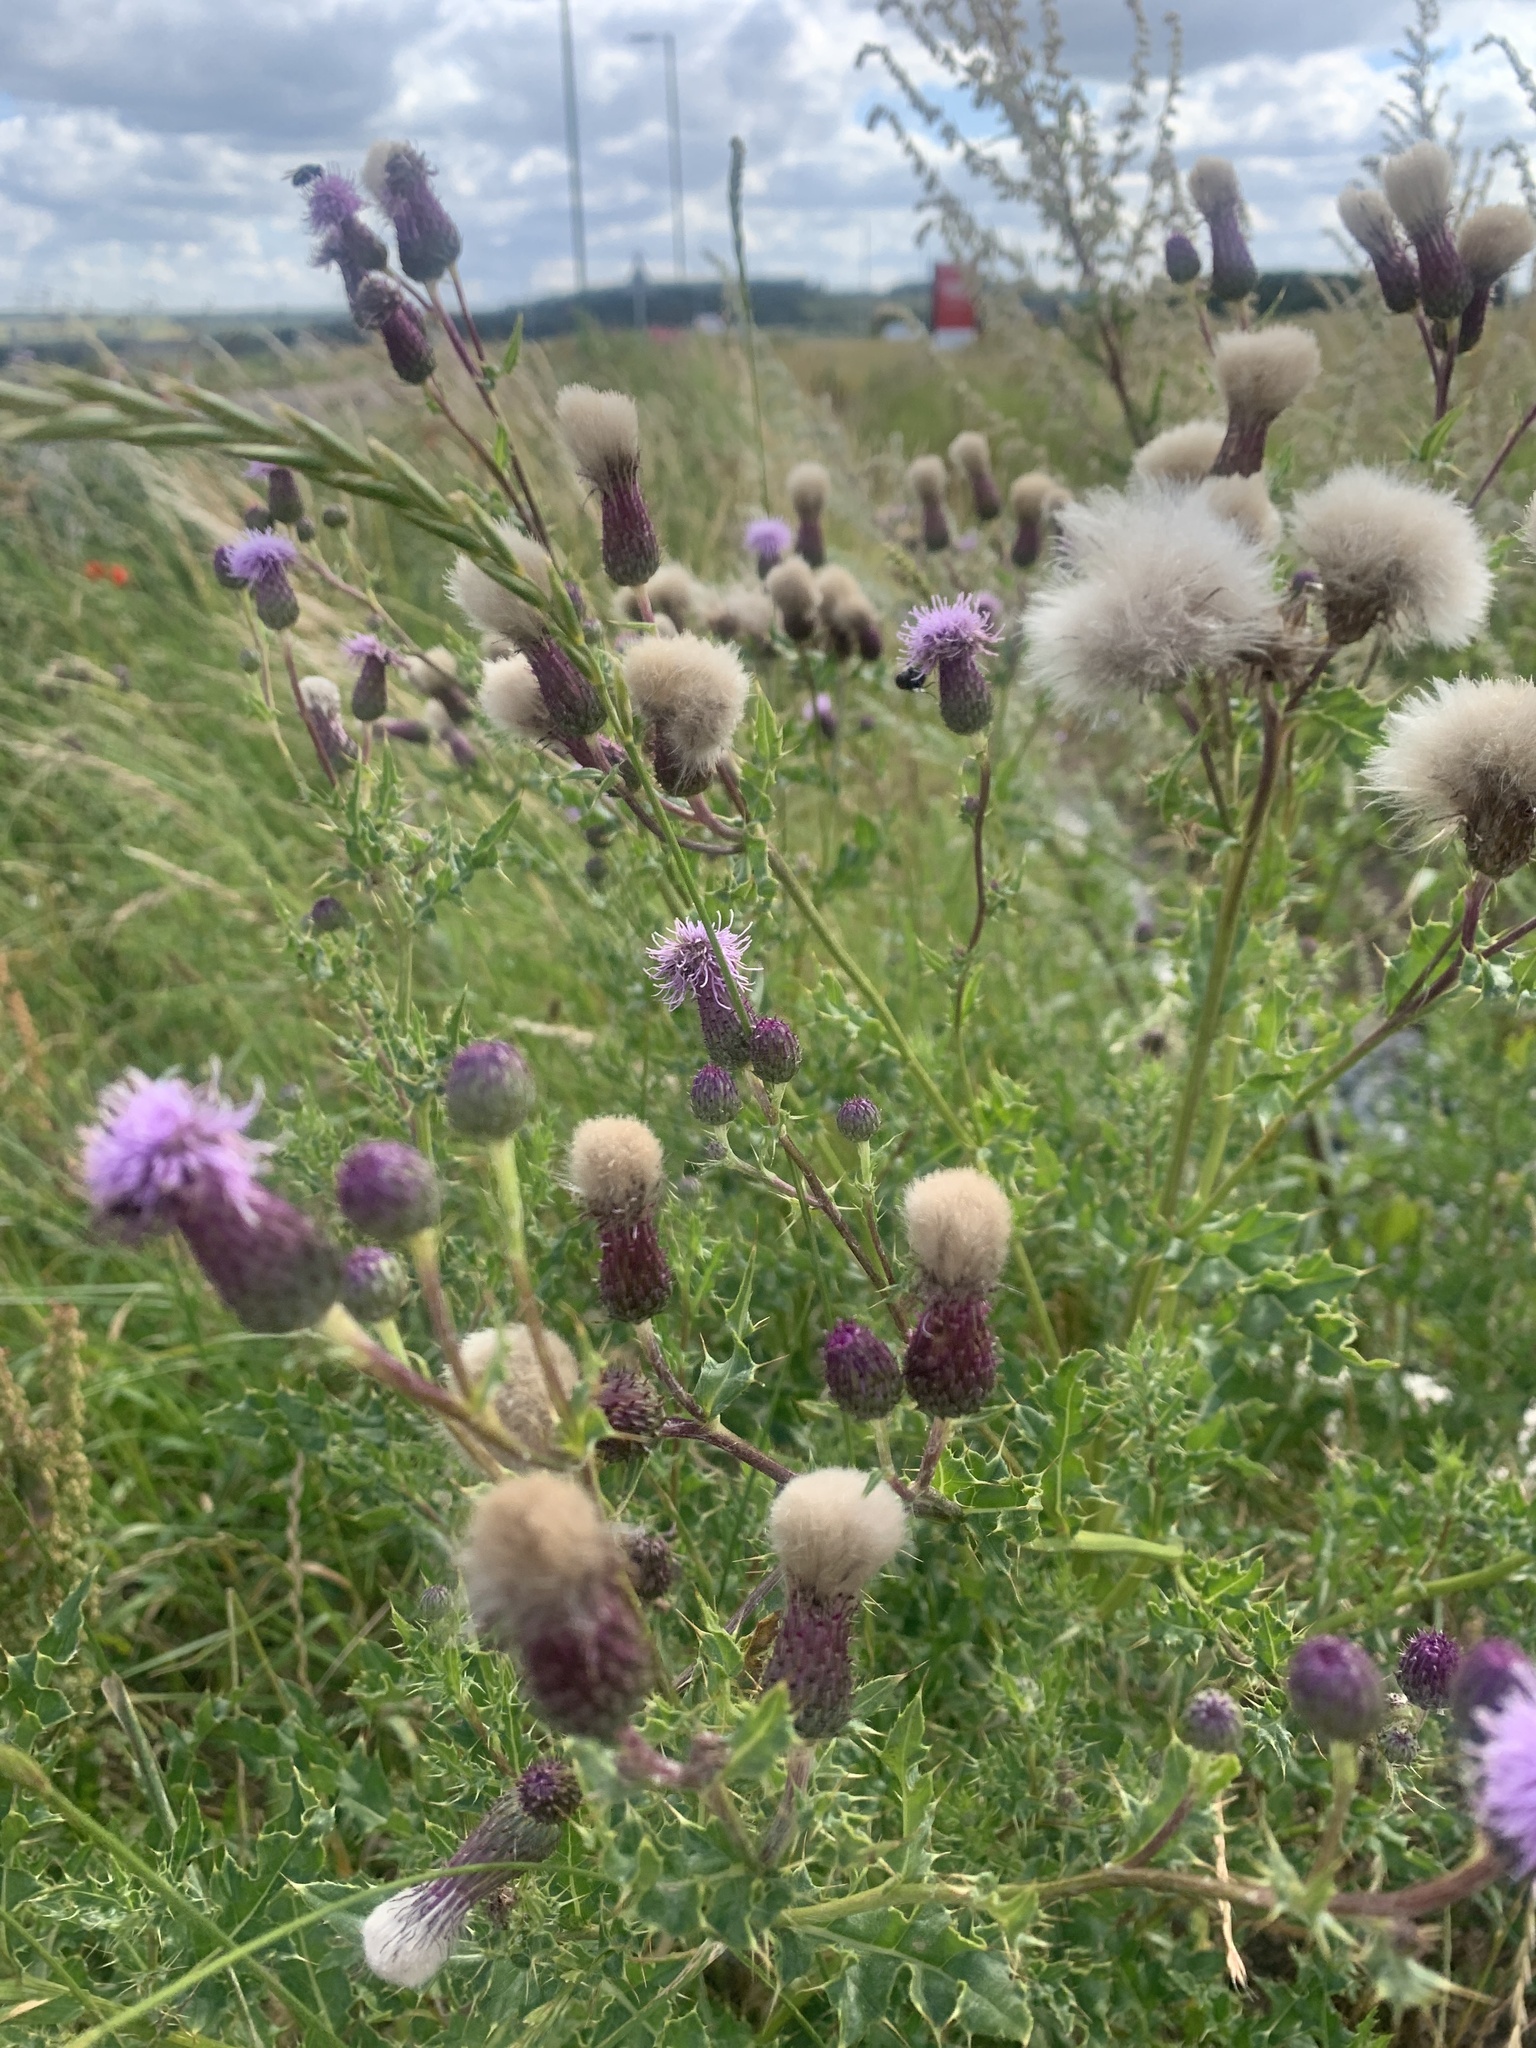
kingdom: Plantae
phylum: Tracheophyta
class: Magnoliopsida
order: Asterales
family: Asteraceae
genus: Cirsium
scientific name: Cirsium arvense
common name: Creeping thistle
